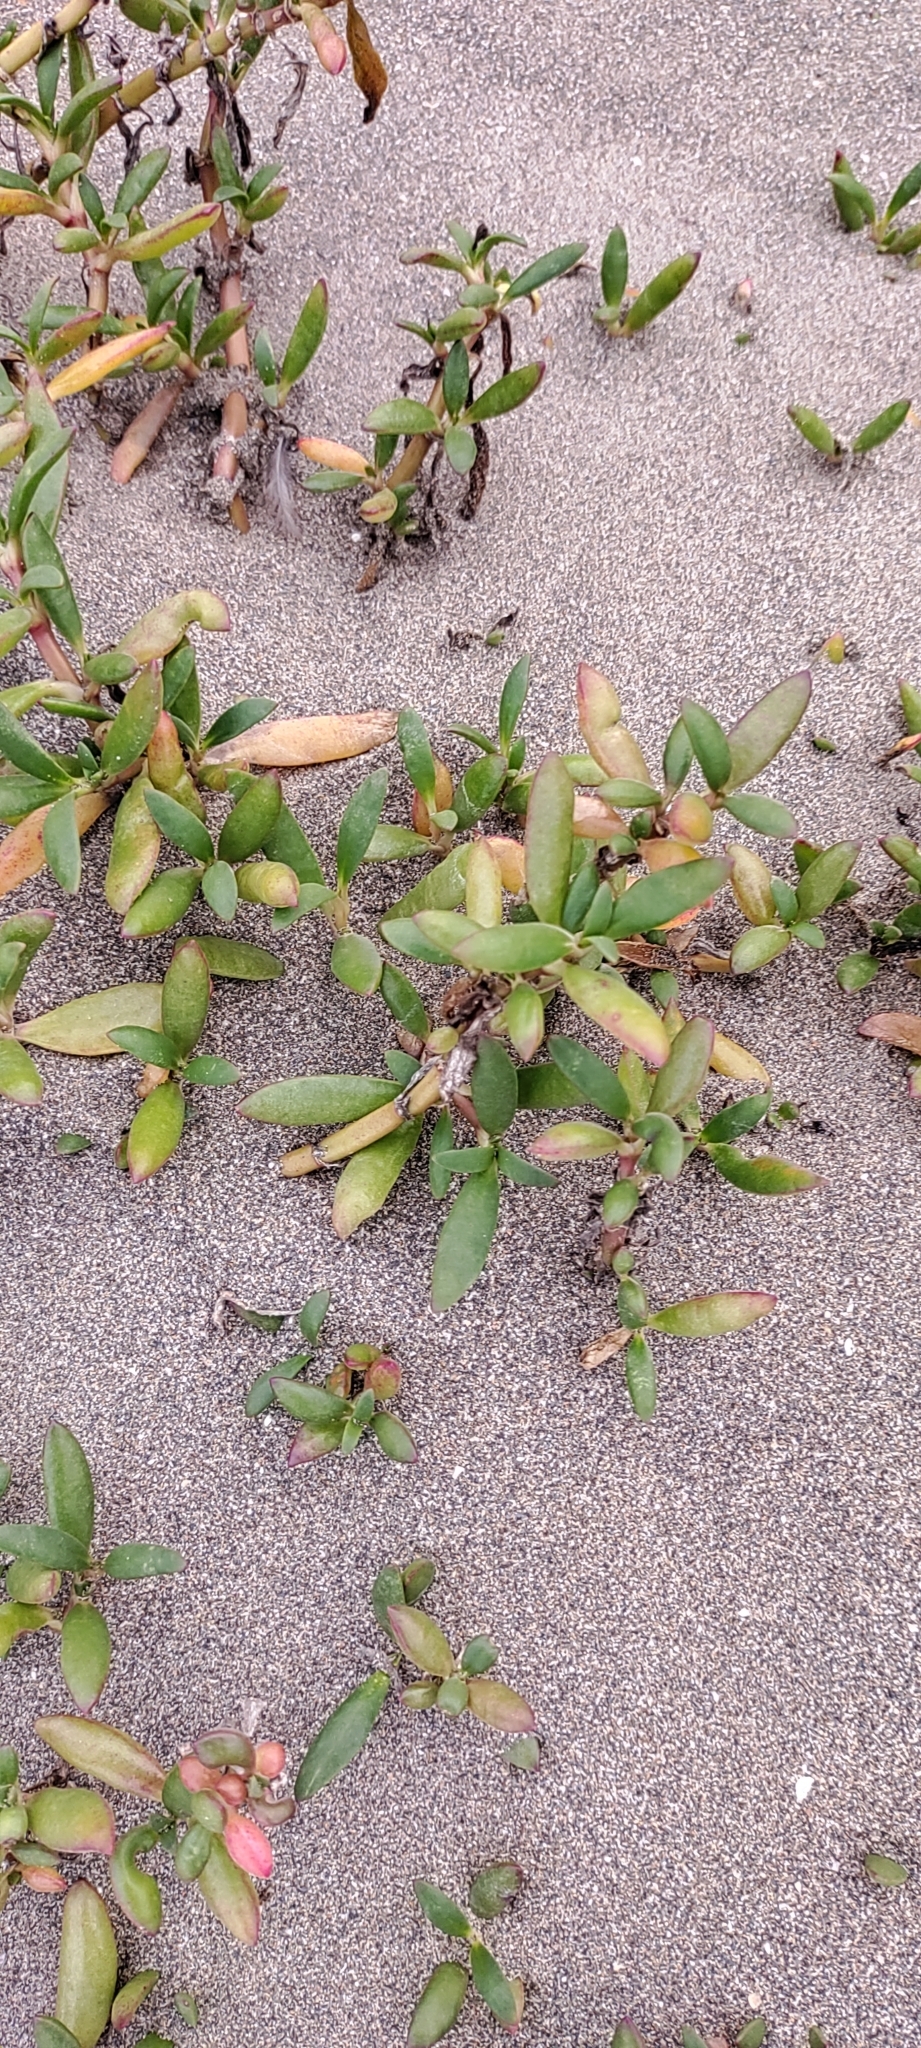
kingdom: Plantae
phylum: Tracheophyta
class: Magnoliopsida
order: Caryophyllales
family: Aizoaceae
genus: Sesuvium
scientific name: Sesuvium portulacastrum
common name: Sea-purslane
